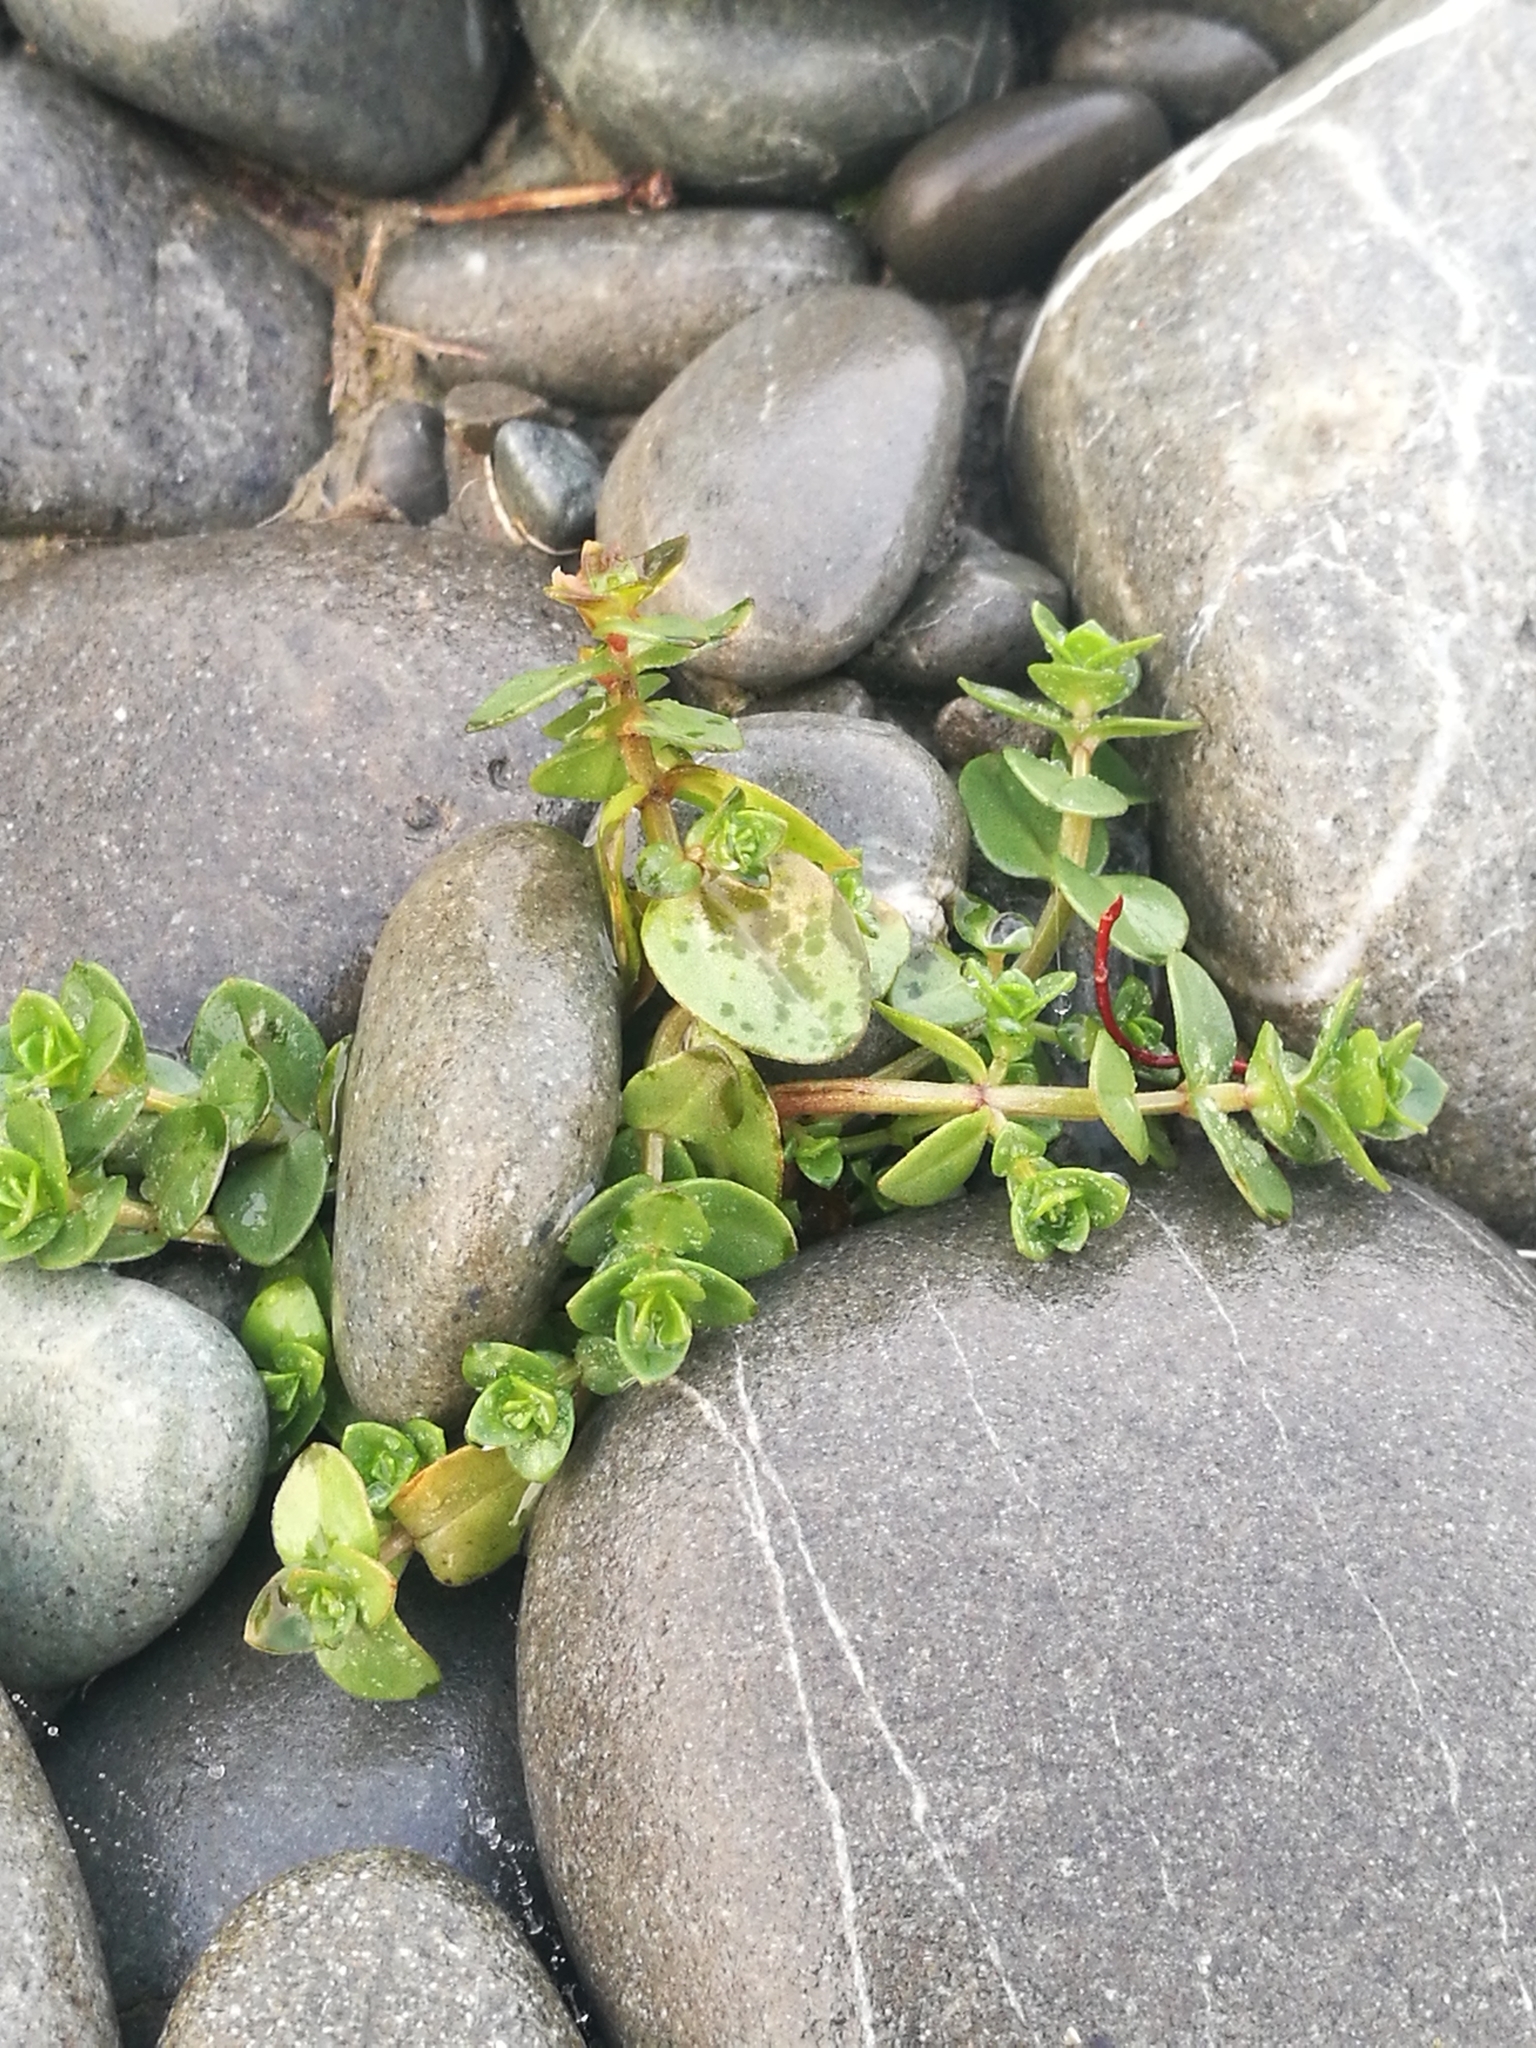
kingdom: Plantae
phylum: Tracheophyta
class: Magnoliopsida
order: Ericales
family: Primulaceae
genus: Lysimachia
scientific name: Lysimachia arvensis
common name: Scarlet pimpernel
